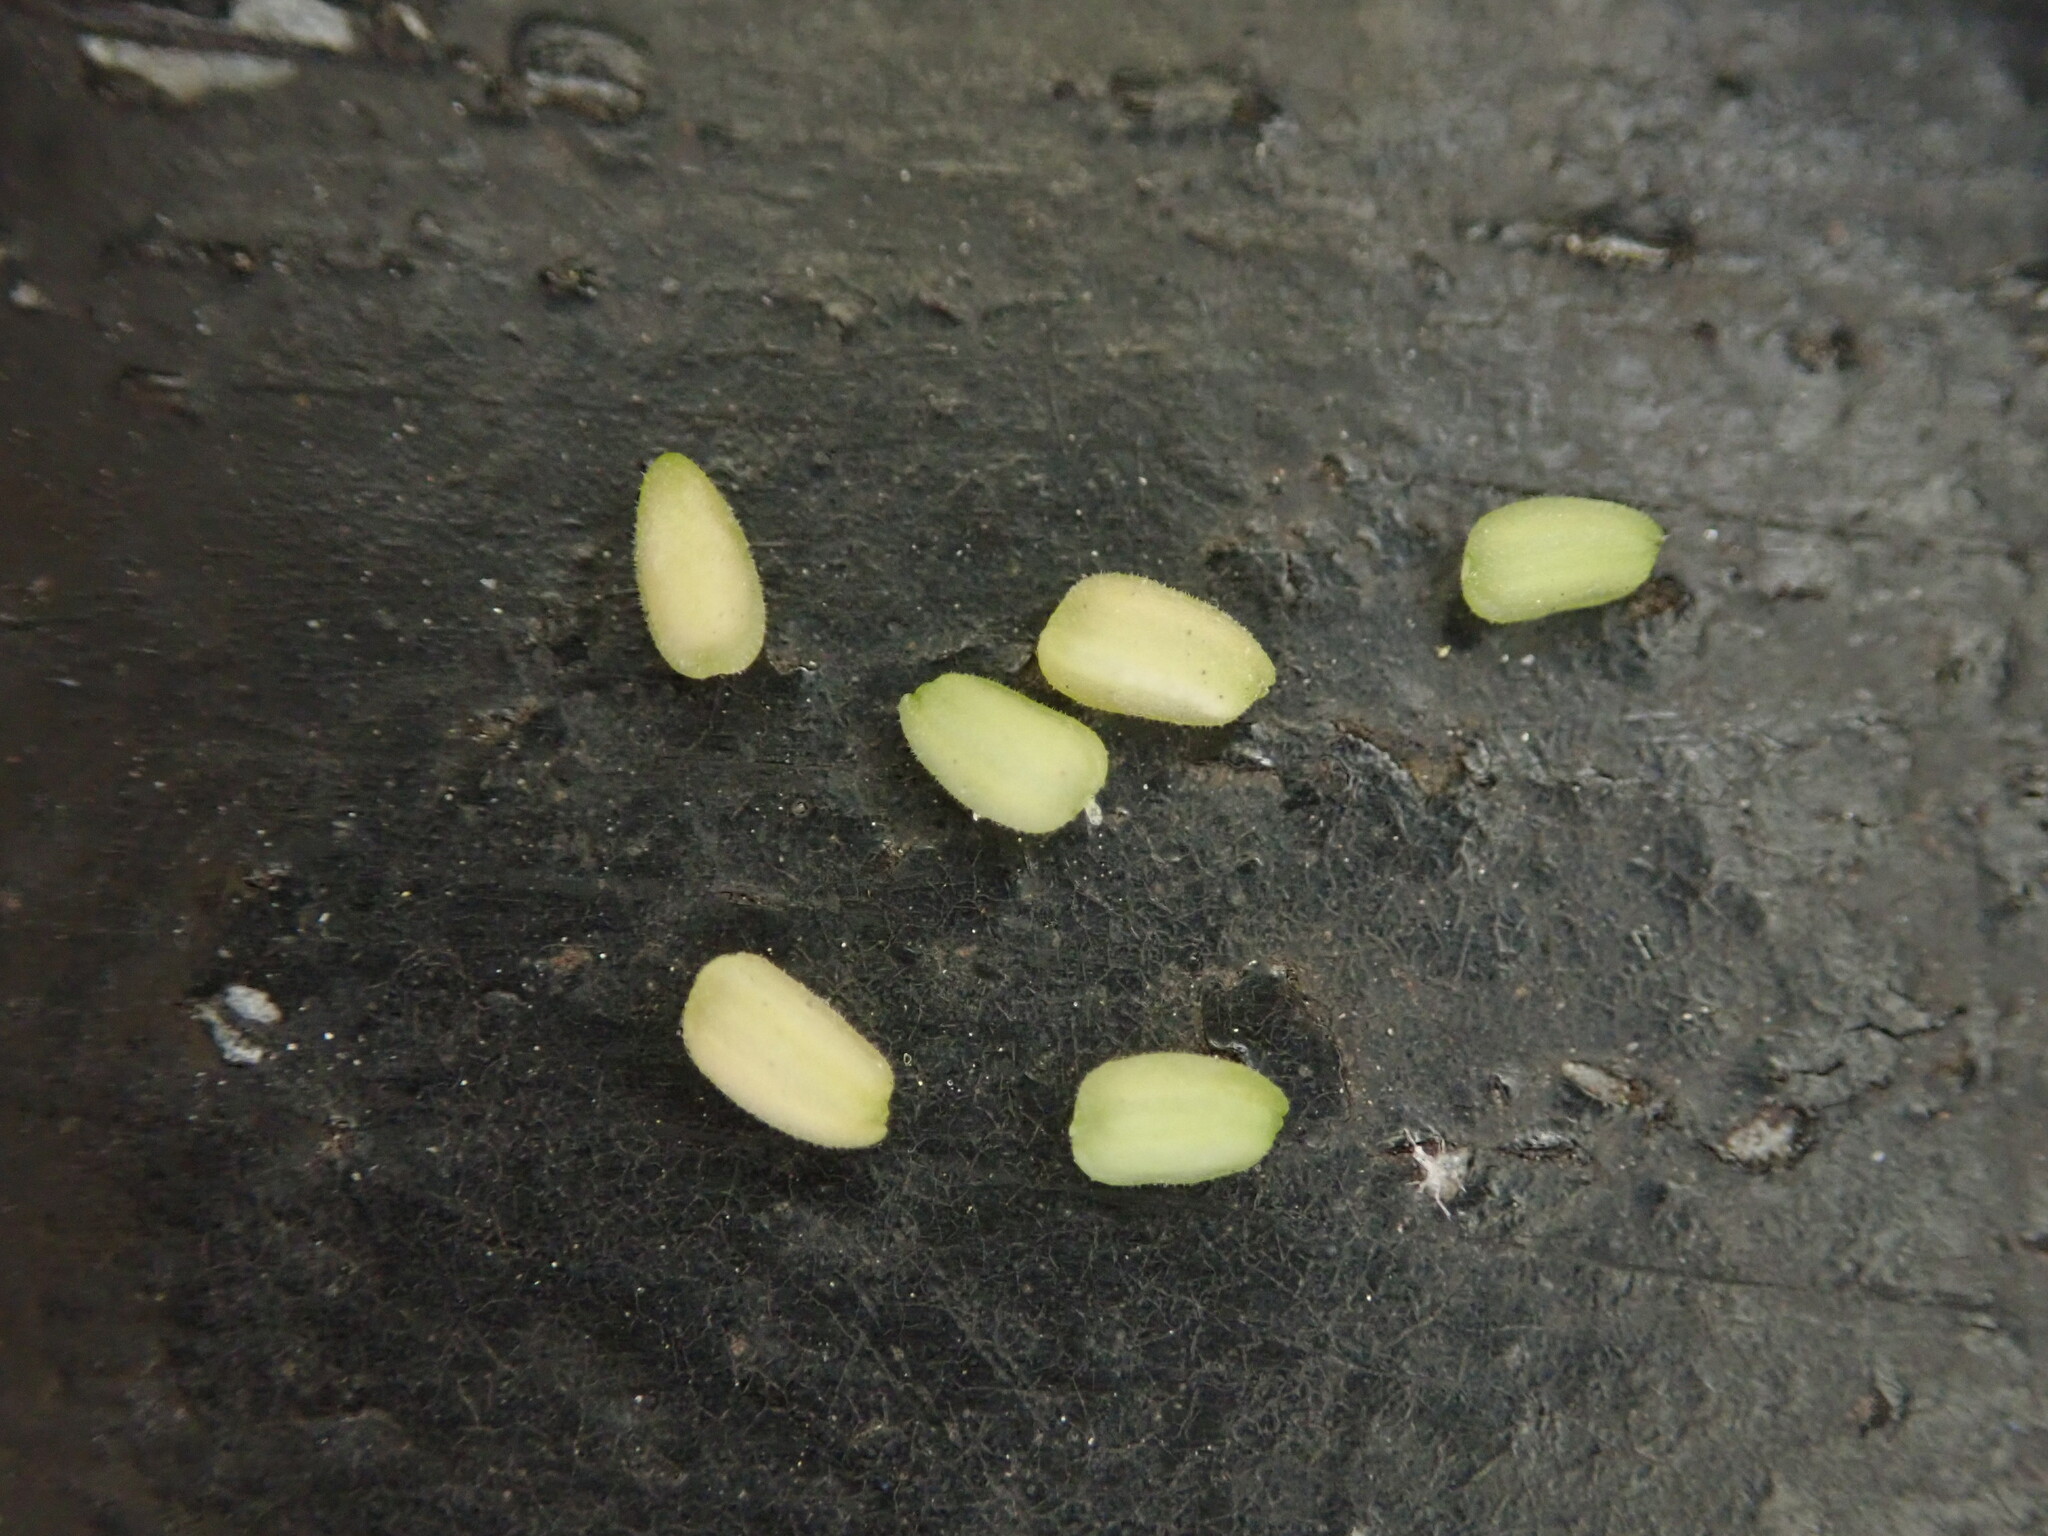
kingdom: Plantae
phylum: Tracheophyta
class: Magnoliopsida
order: Dipsacales
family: Caprifoliaceae
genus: Valerianella
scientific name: Valerianella carinata
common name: Keeled-fruited cornsalad
